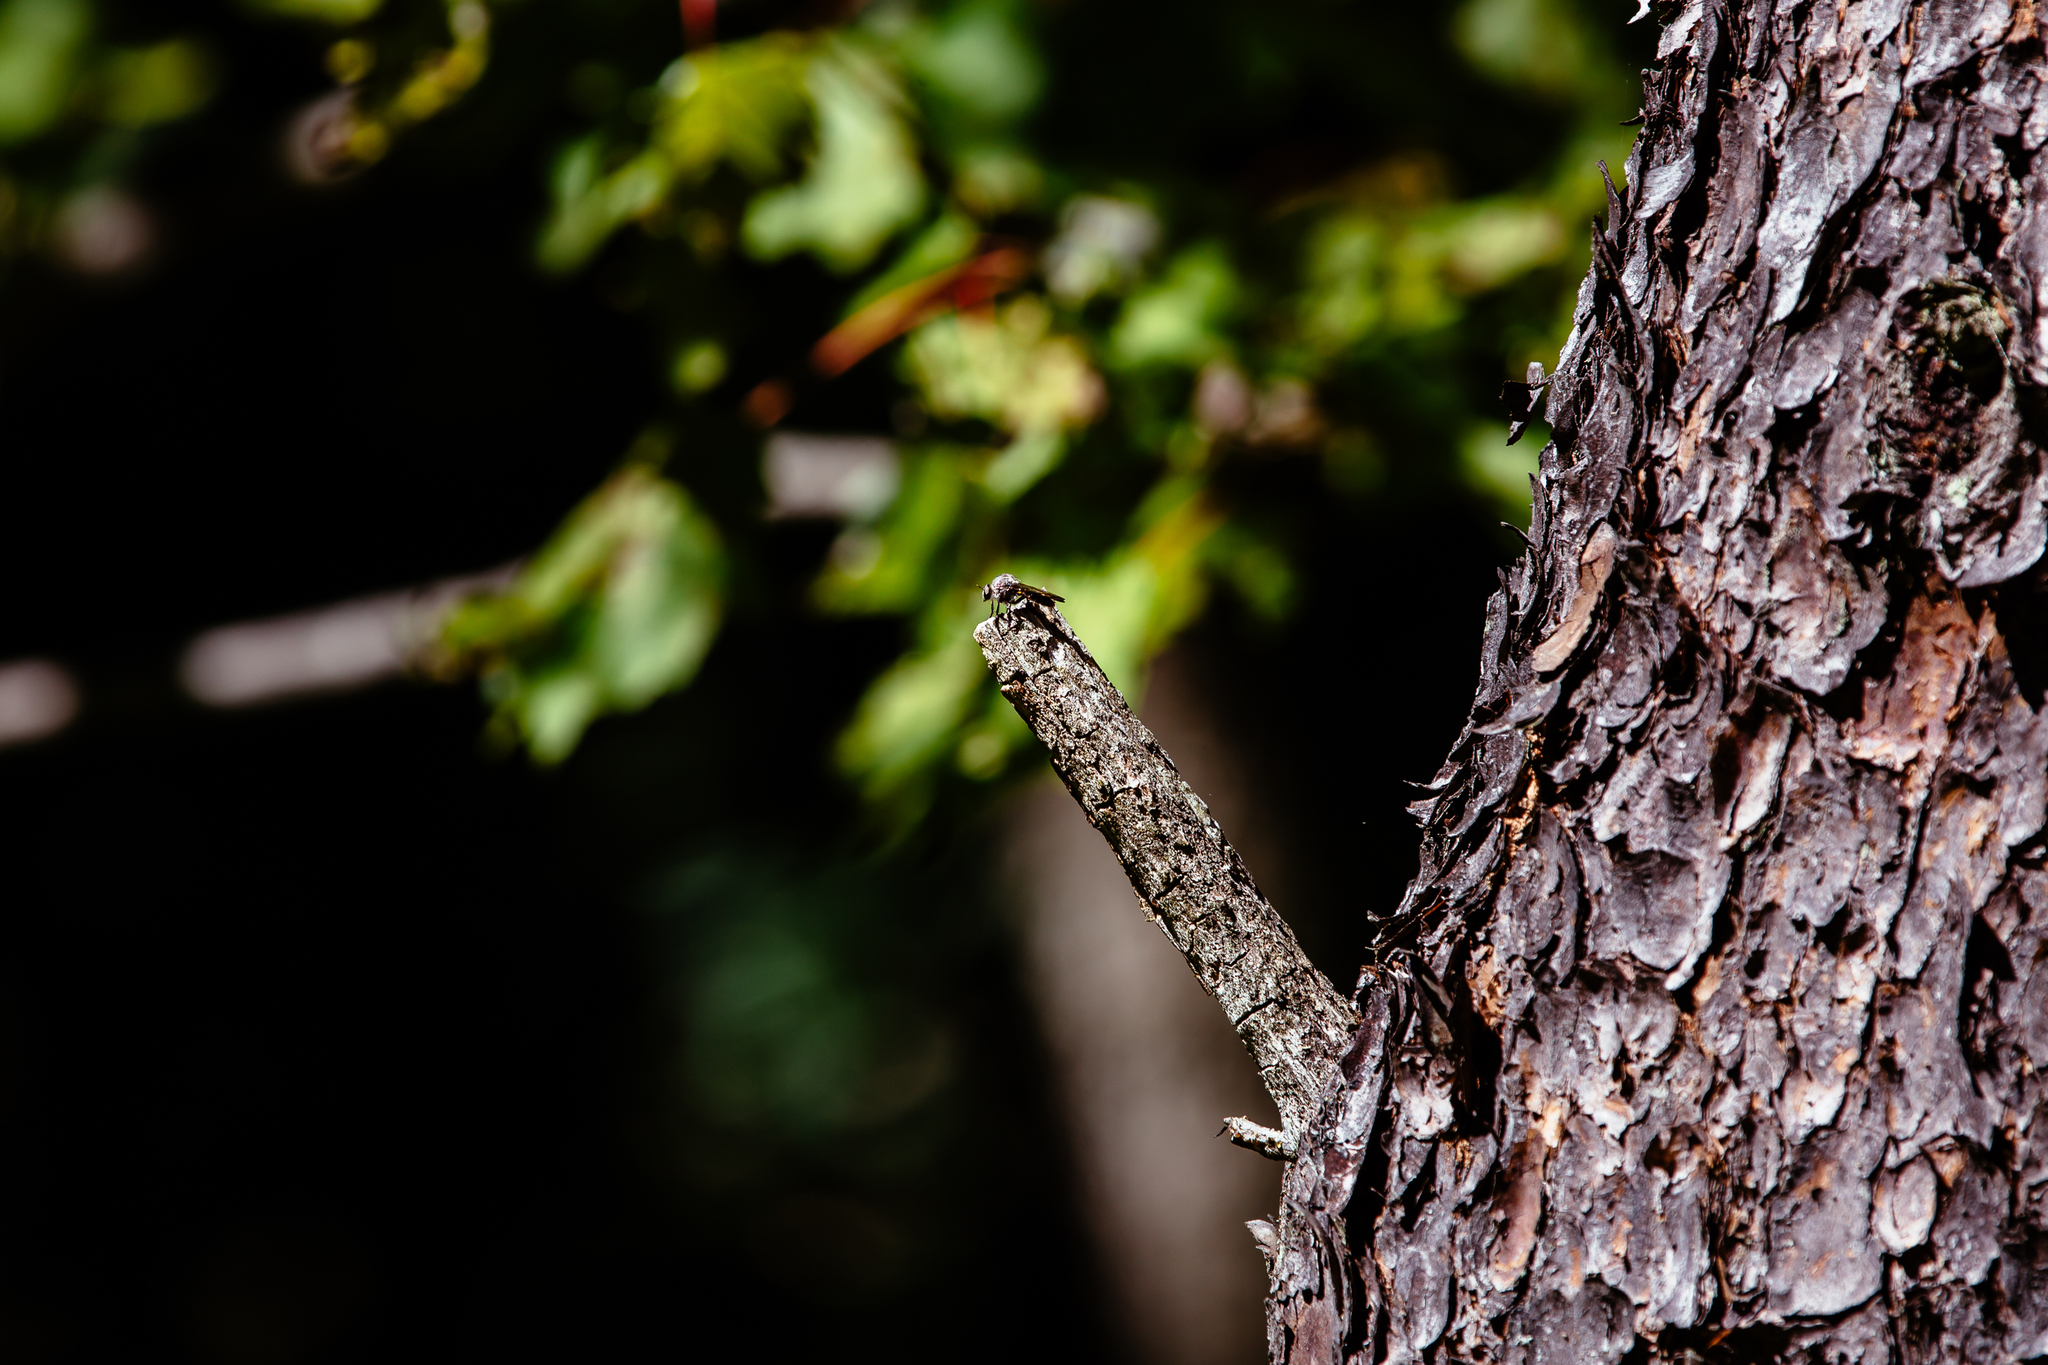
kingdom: Animalia
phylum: Arthropoda
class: Insecta
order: Diptera
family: Asilidae
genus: Heteropogon
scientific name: Heteropogon macerinus
